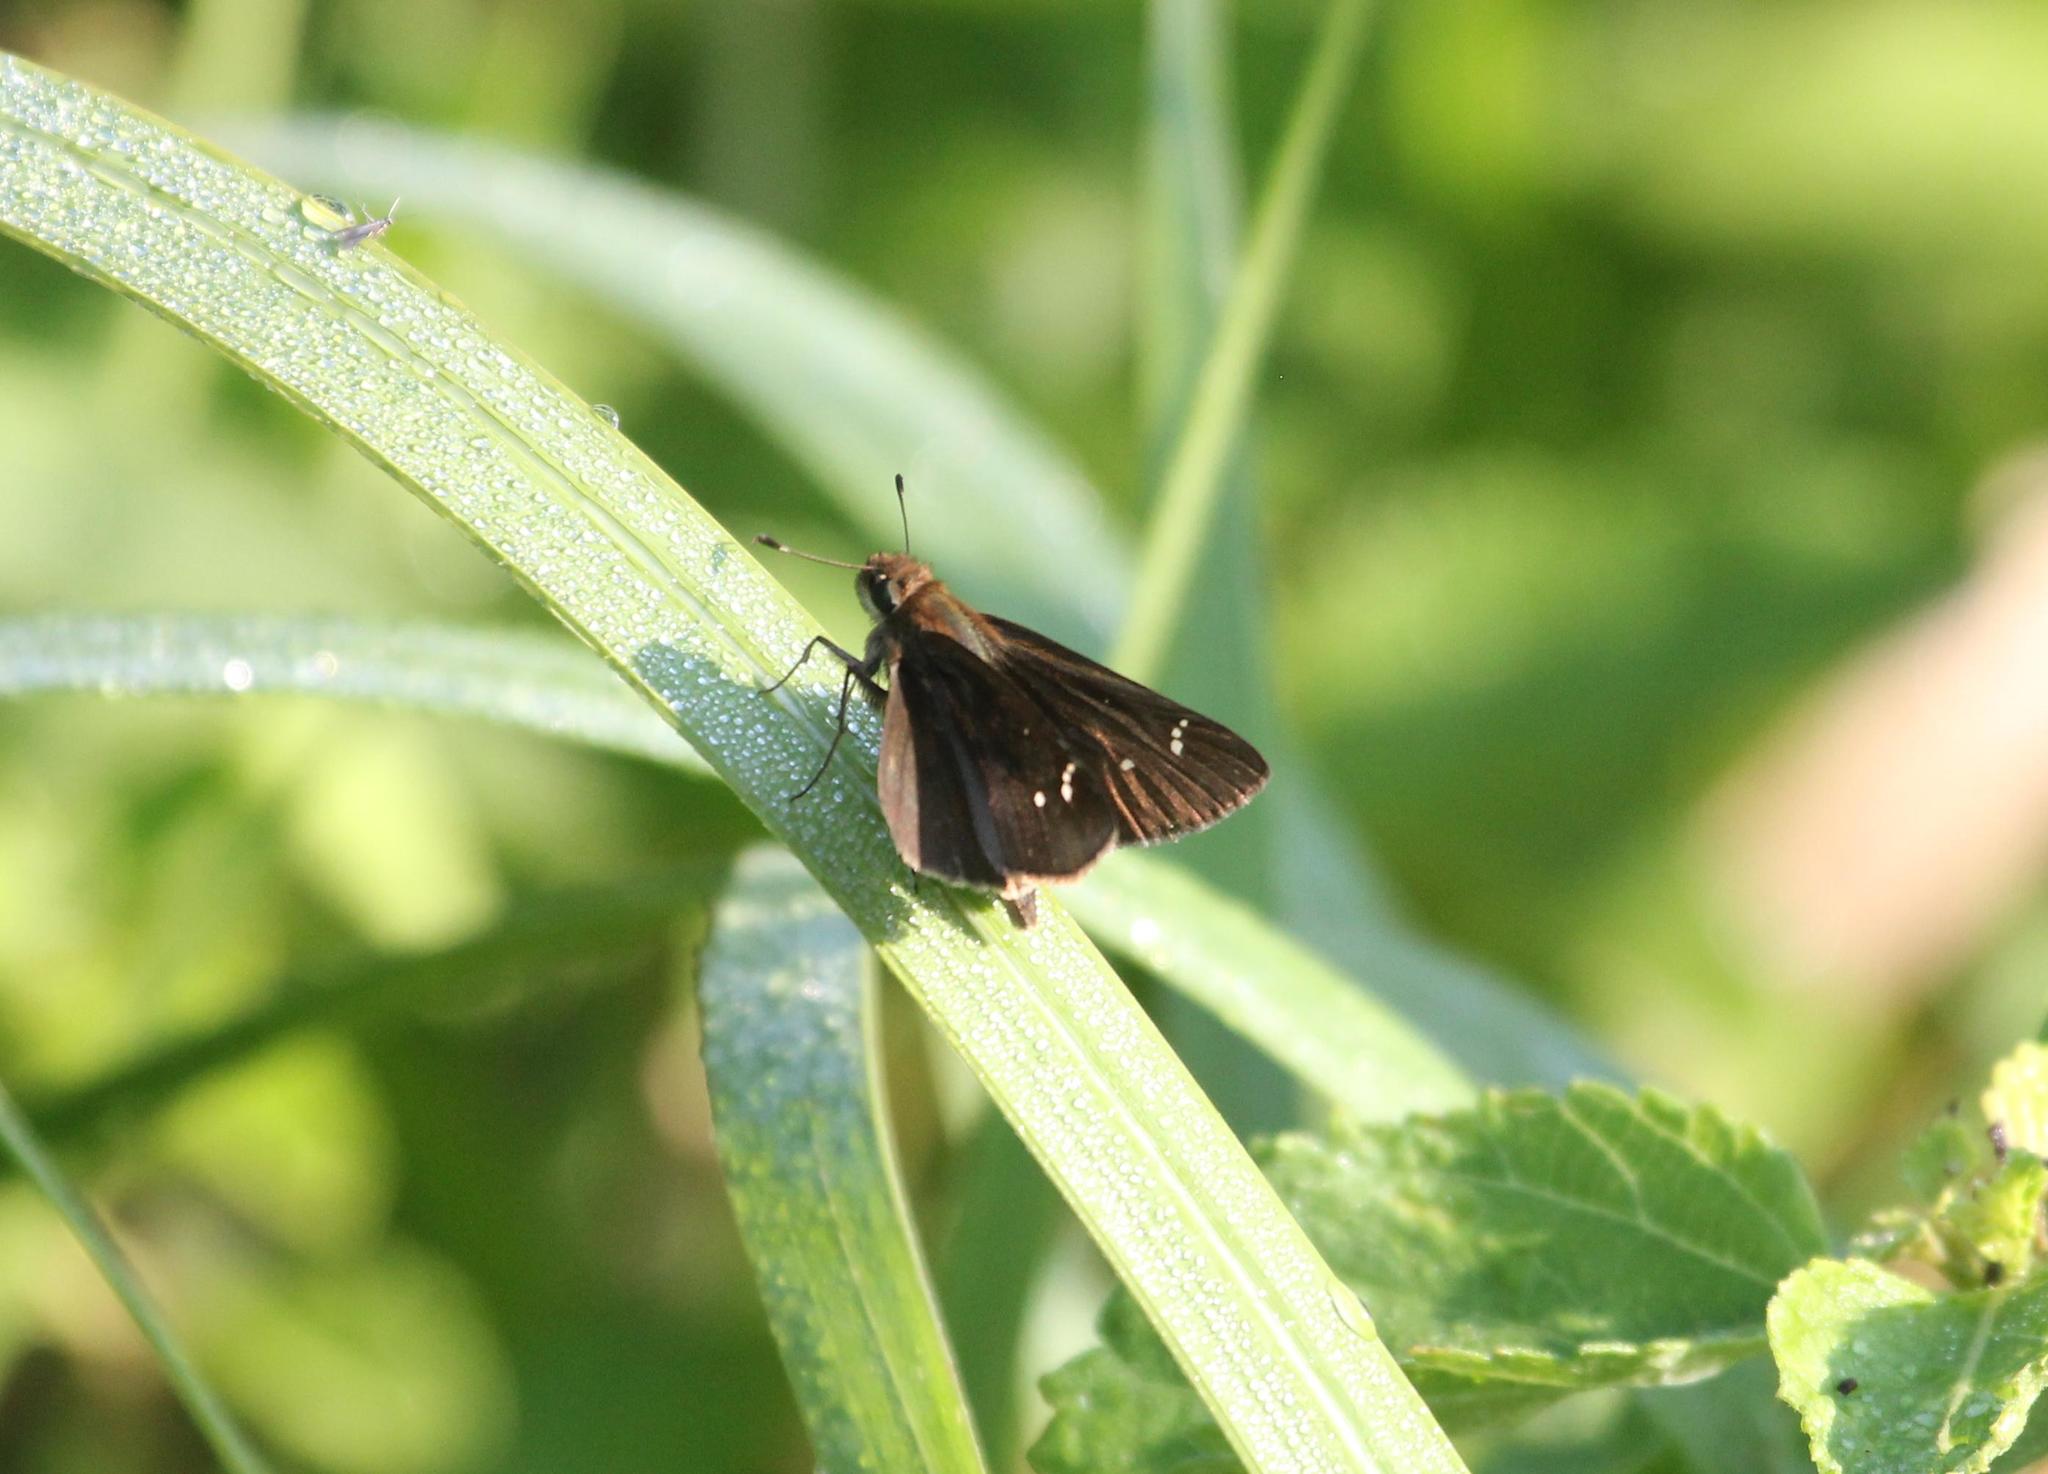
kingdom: Animalia
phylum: Arthropoda
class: Insecta
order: Lepidoptera
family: Hesperiidae
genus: Lerema
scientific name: Lerema accius
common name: Clouded skipper
